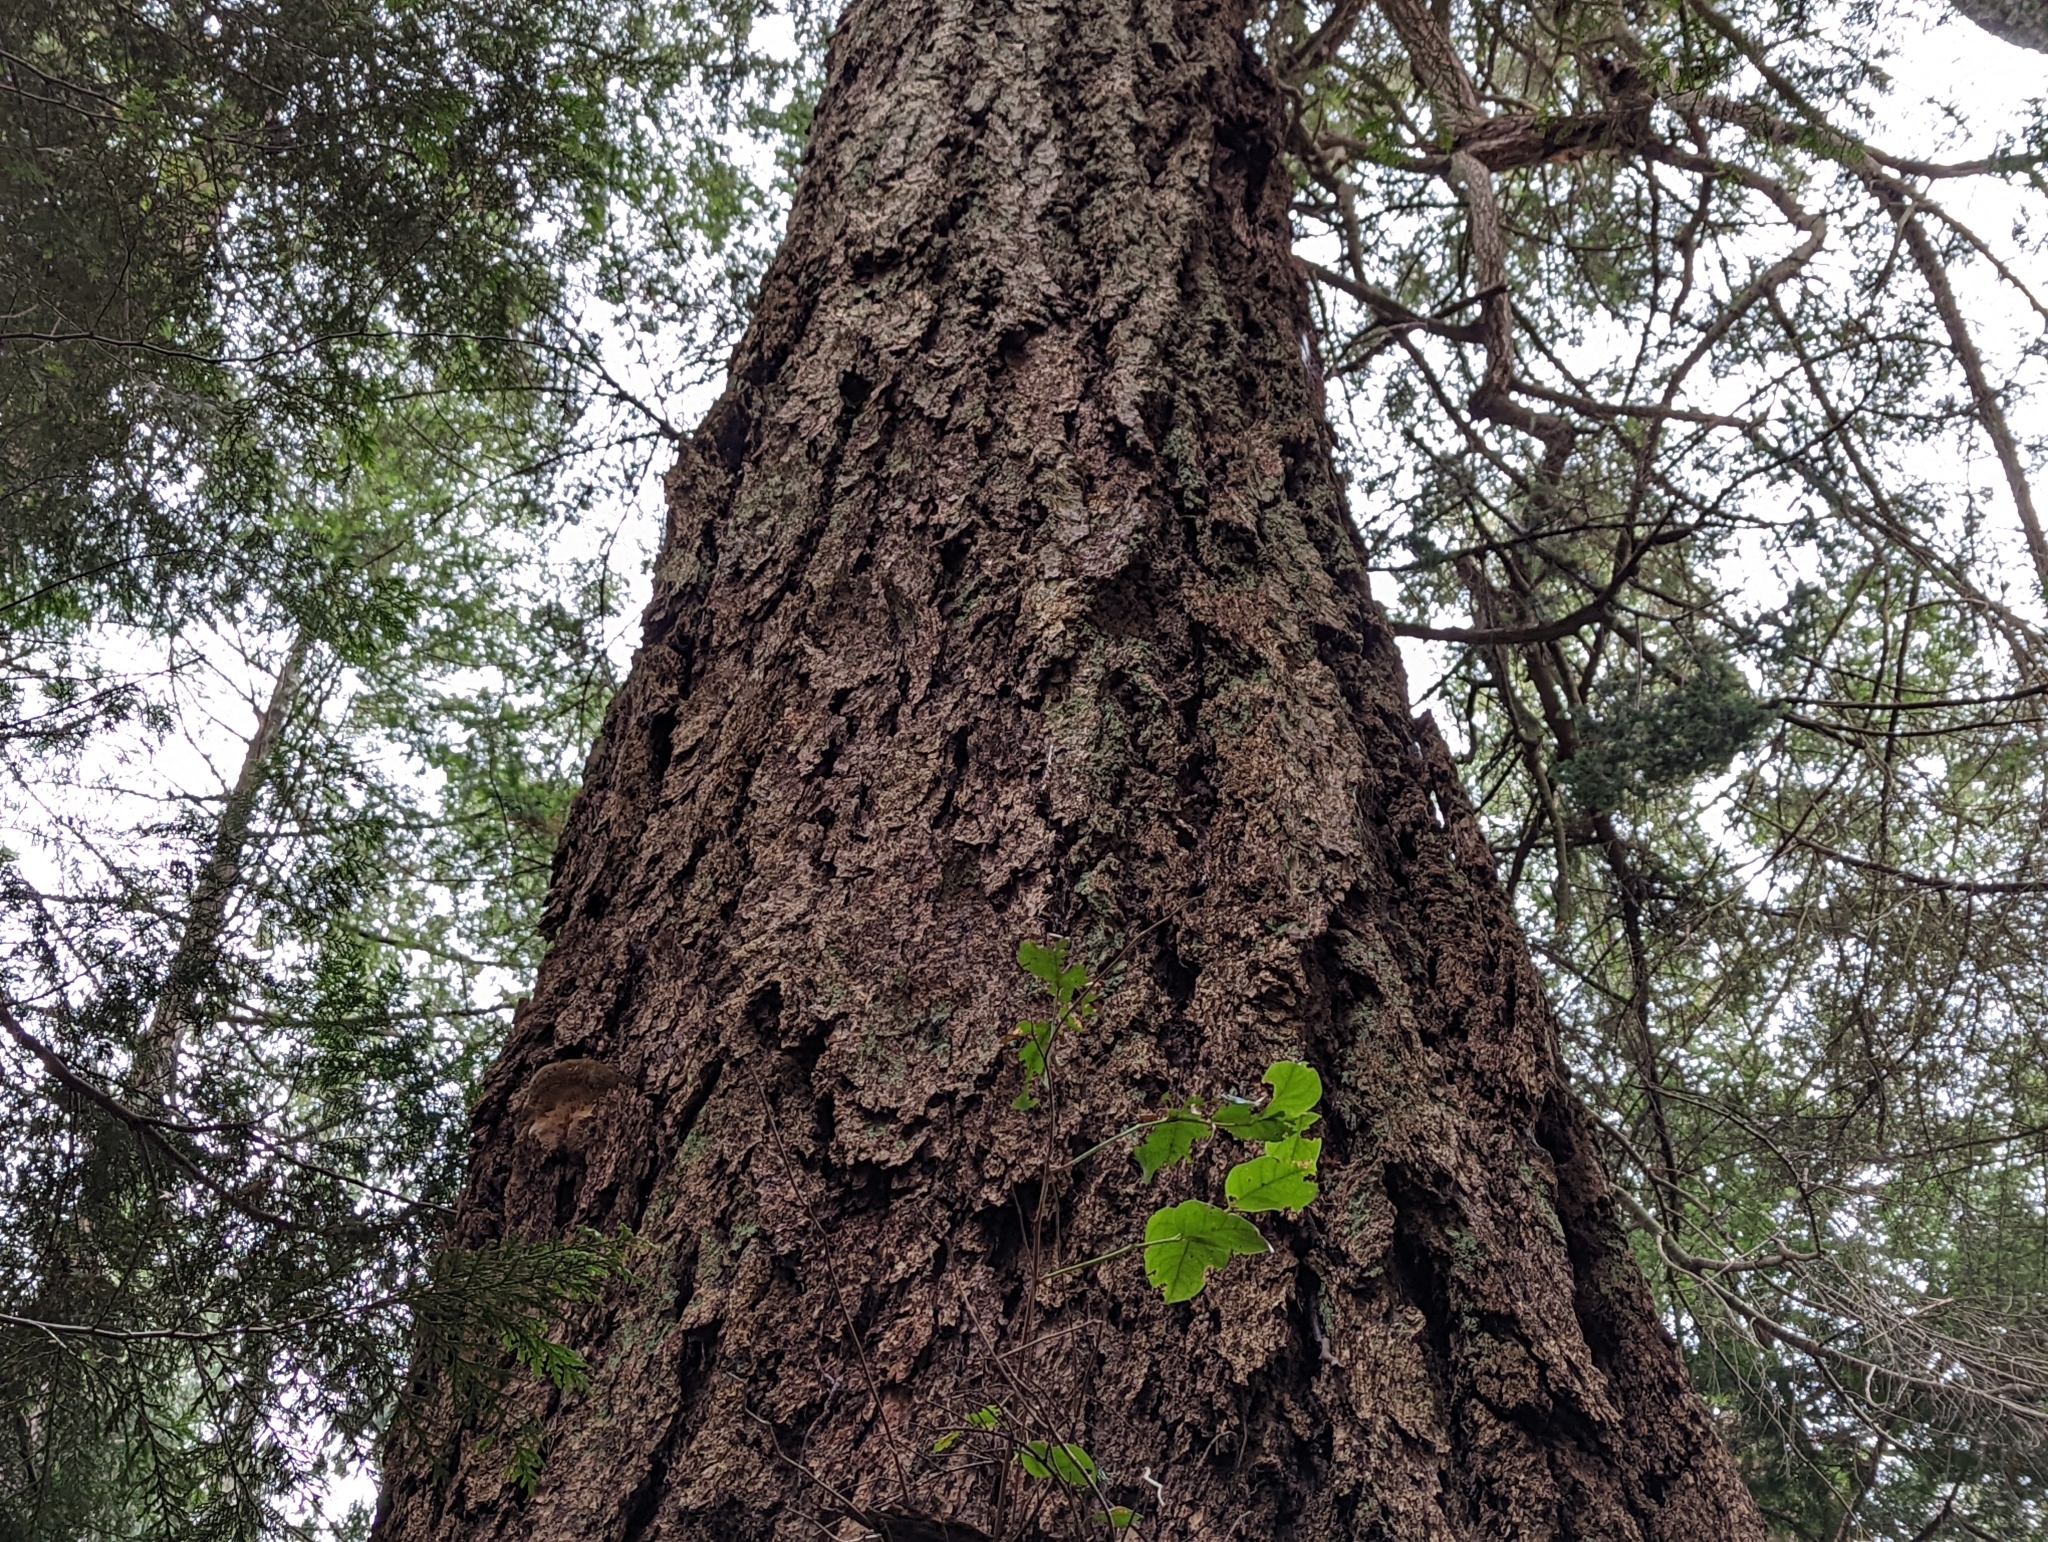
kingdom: Plantae
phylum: Tracheophyta
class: Pinopsida
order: Pinales
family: Pinaceae
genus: Pseudotsuga
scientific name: Pseudotsuga menziesii
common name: Douglas fir
